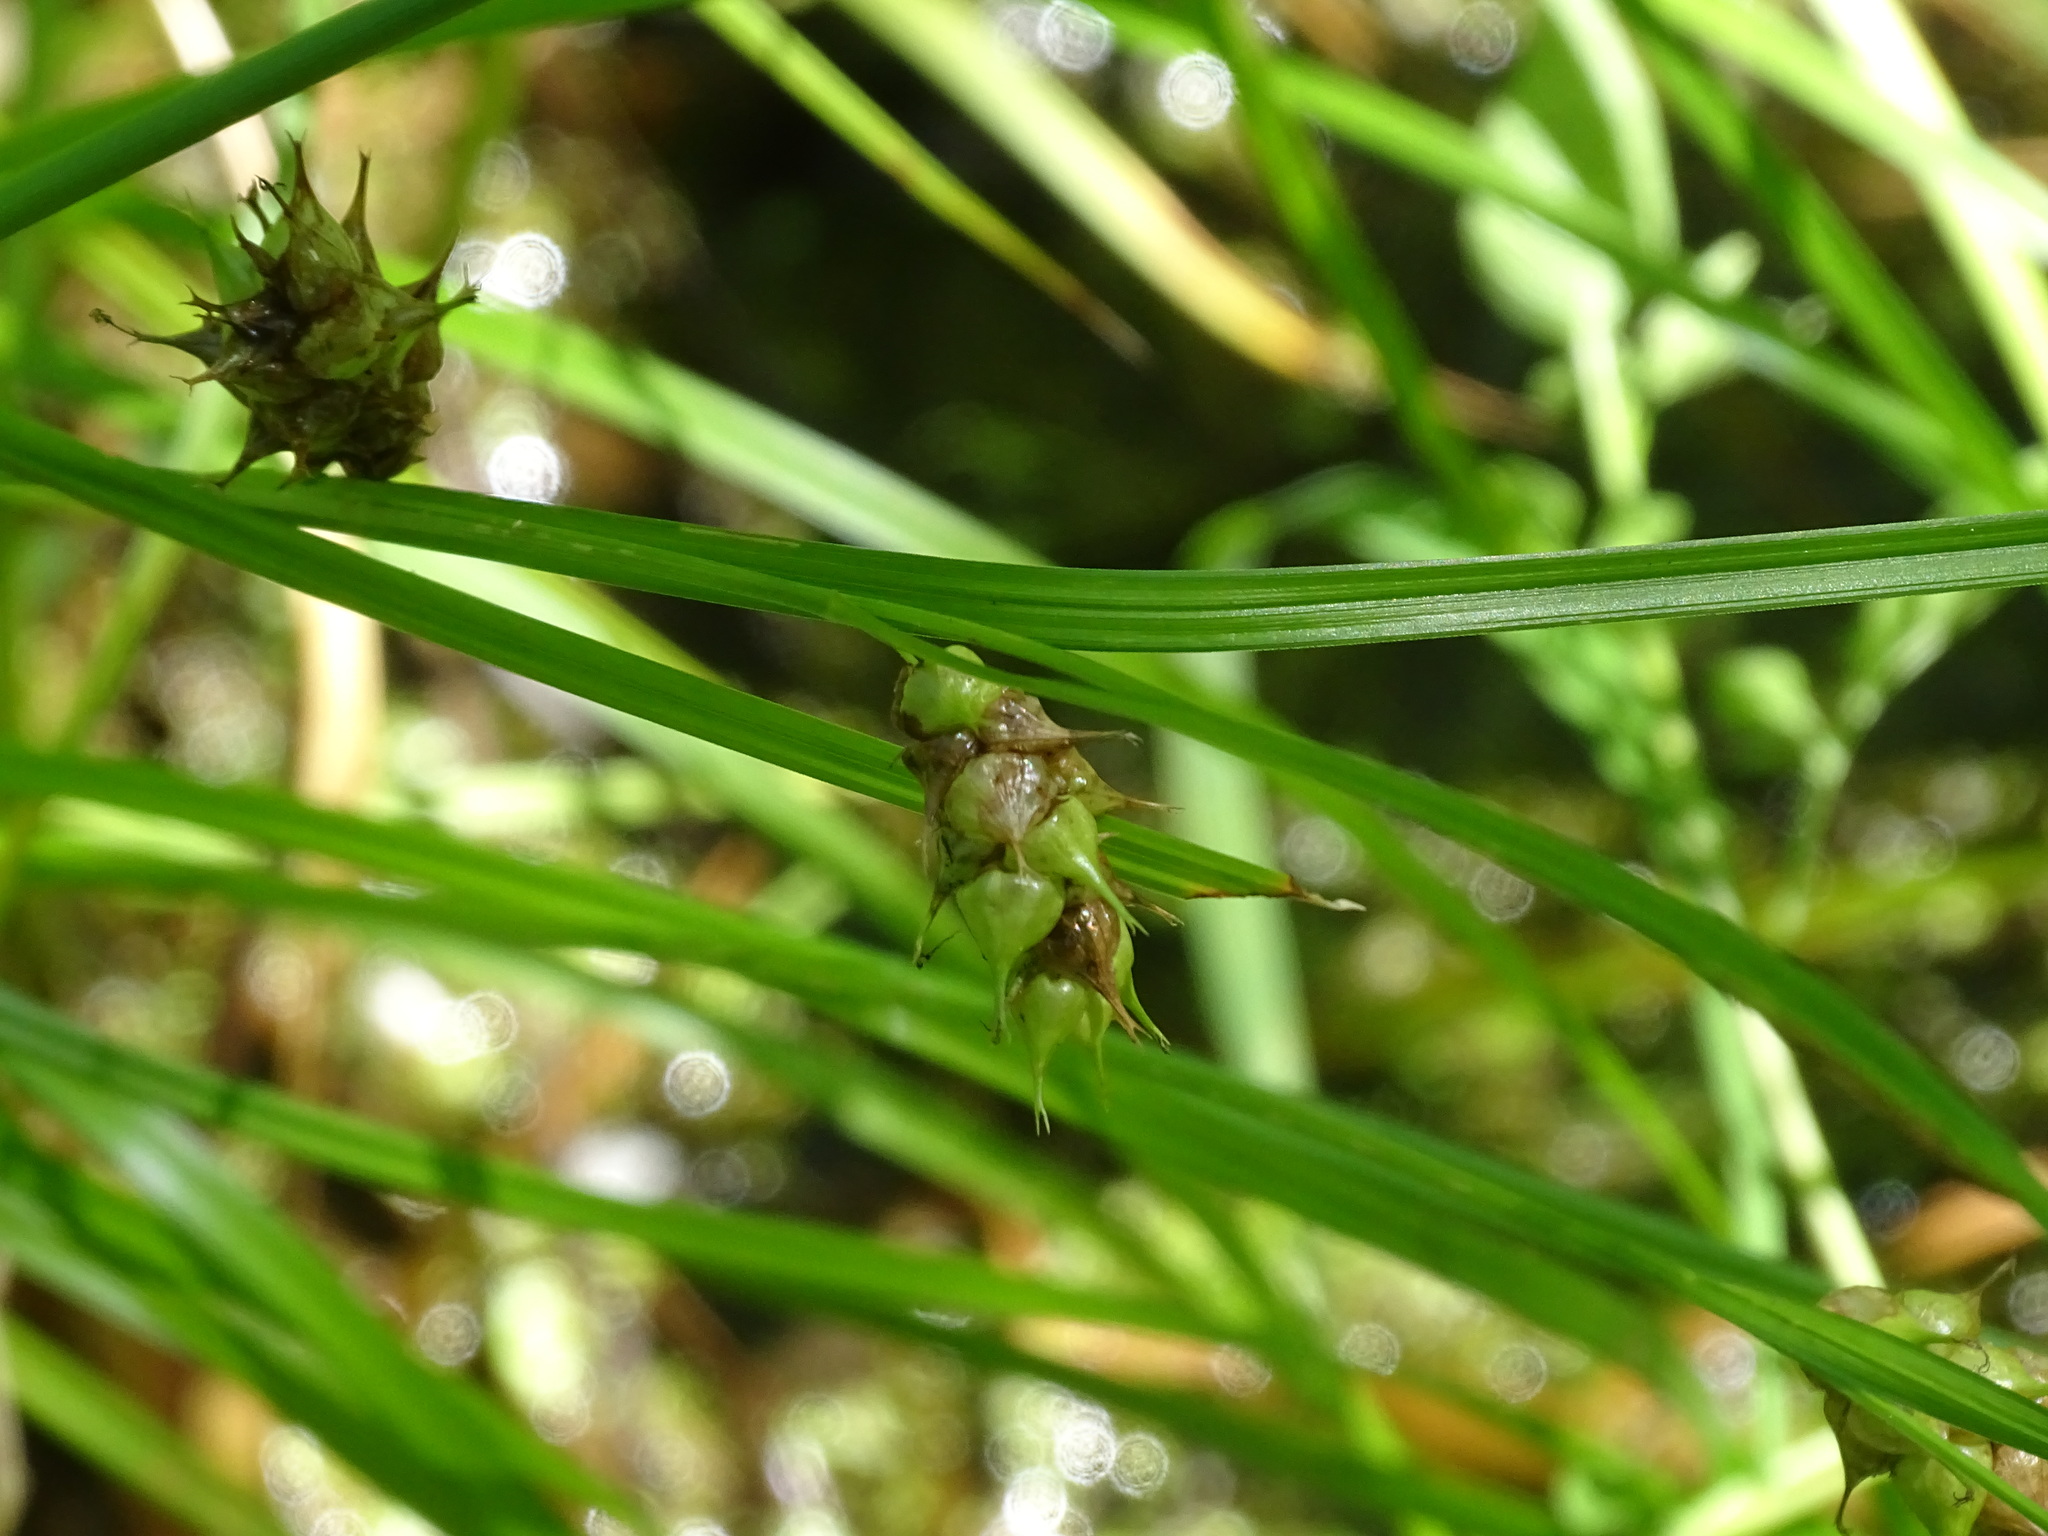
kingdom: Plantae
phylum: Tracheophyta
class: Liliopsida
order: Poales
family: Cyperaceae
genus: Carex
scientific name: Carex tuckermanii
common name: Tuckerman's sedge
